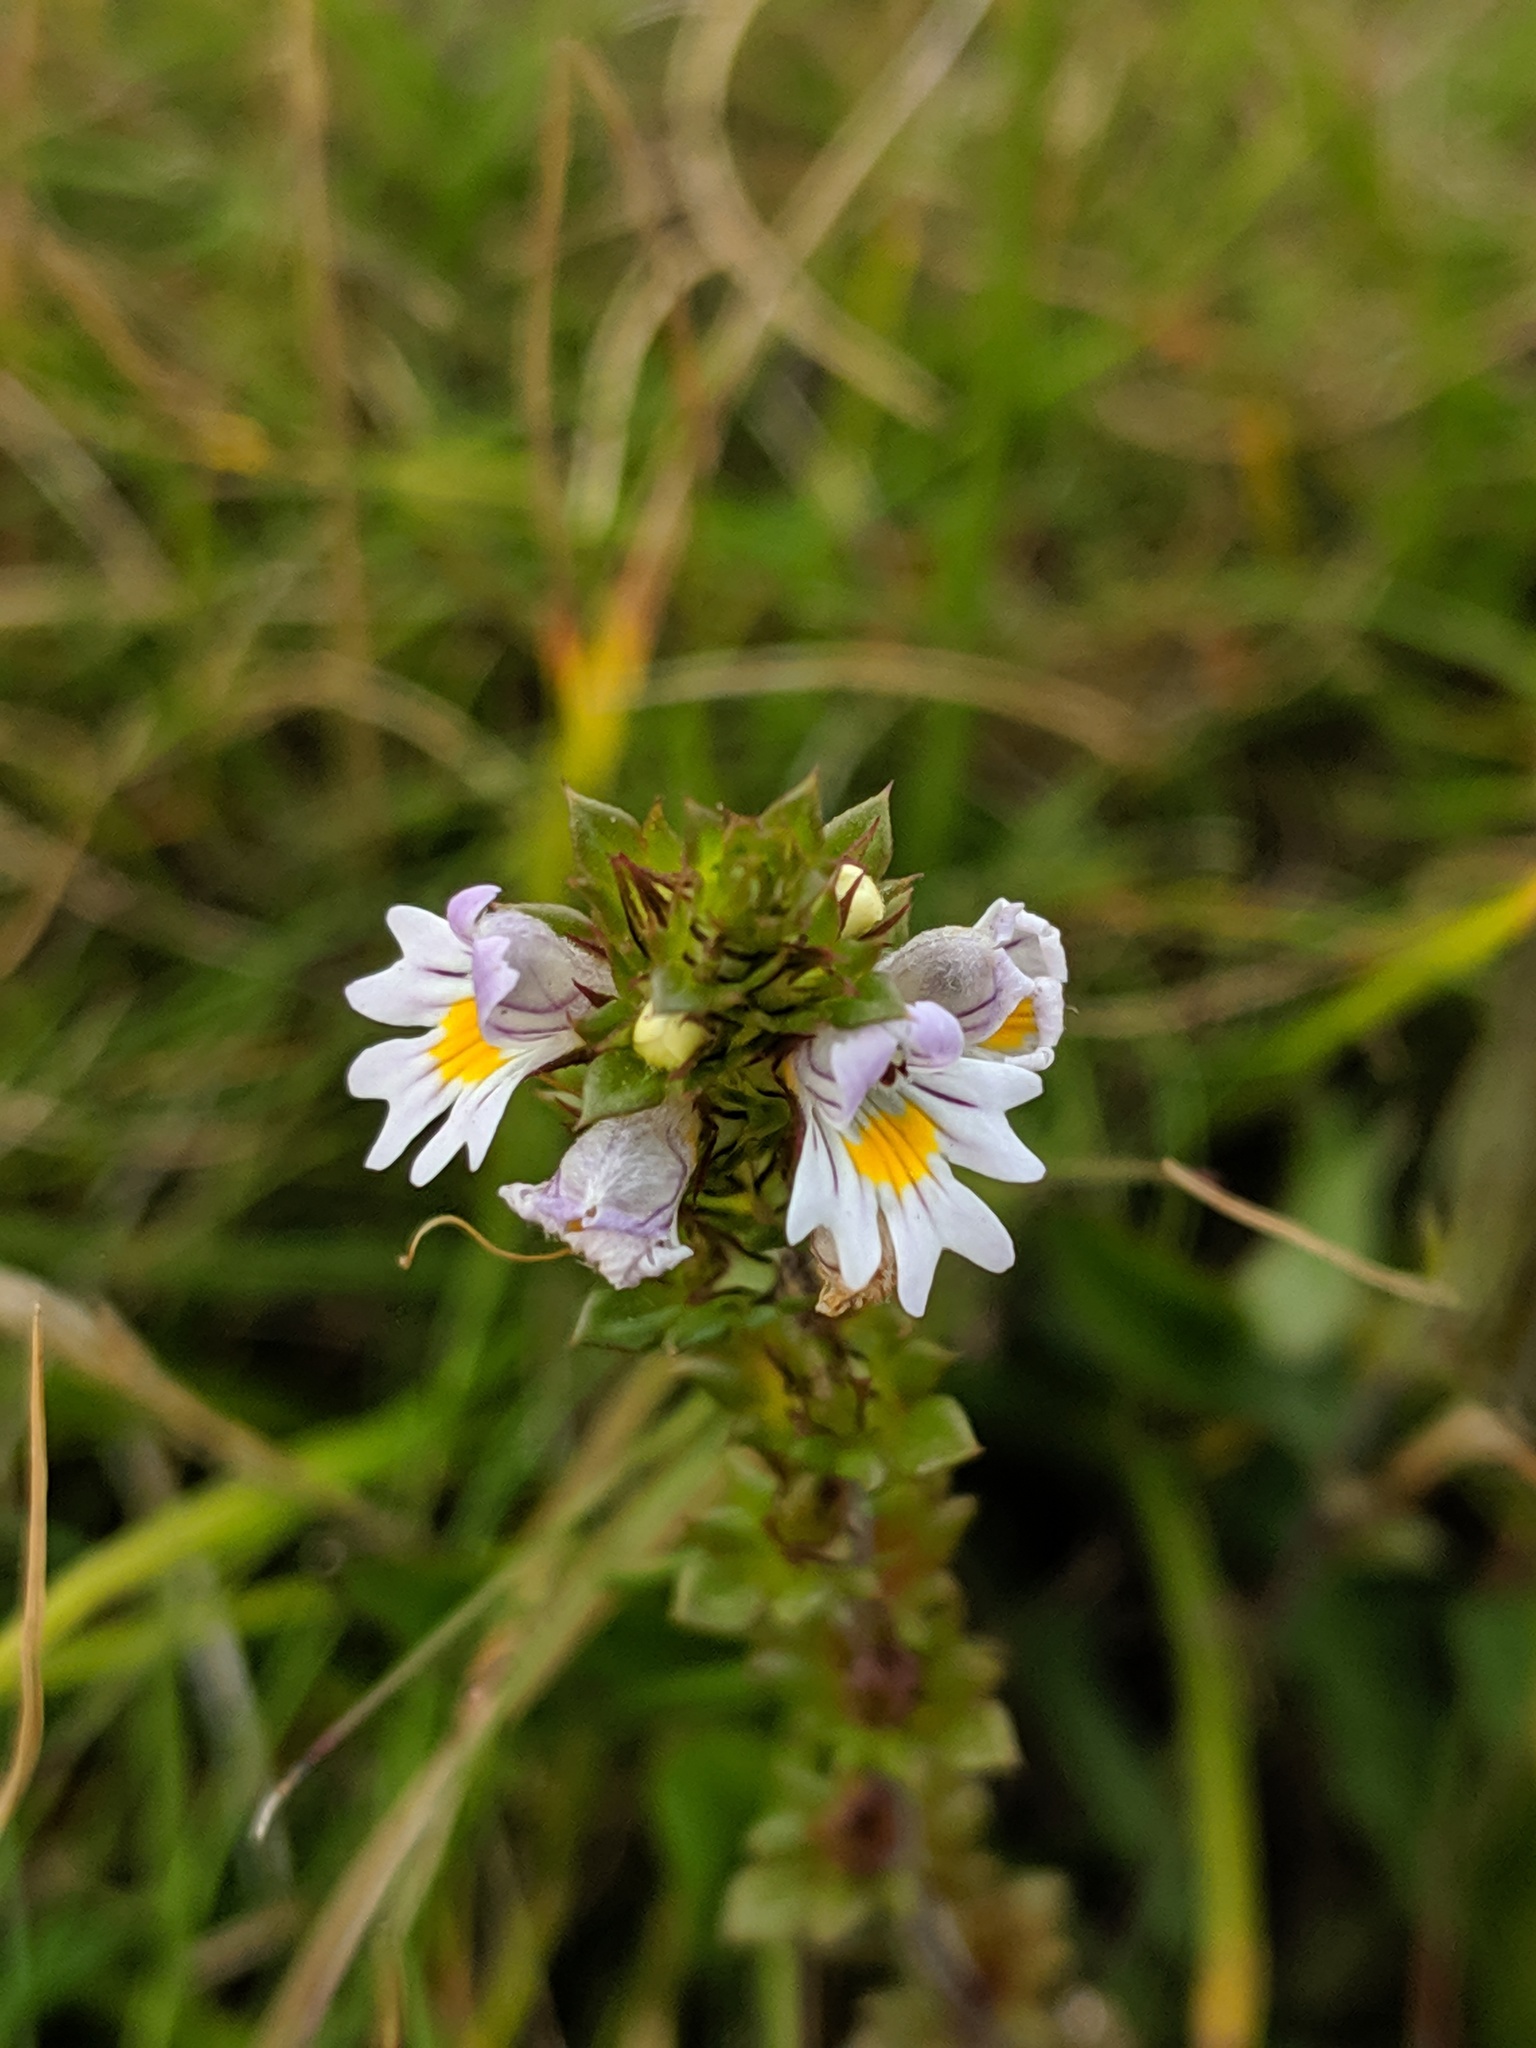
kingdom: Plantae
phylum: Tracheophyta
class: Magnoliopsida
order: Lamiales
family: Orobanchaceae
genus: Euphrasia
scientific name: Euphrasia nemorosa
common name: Common eyebright
